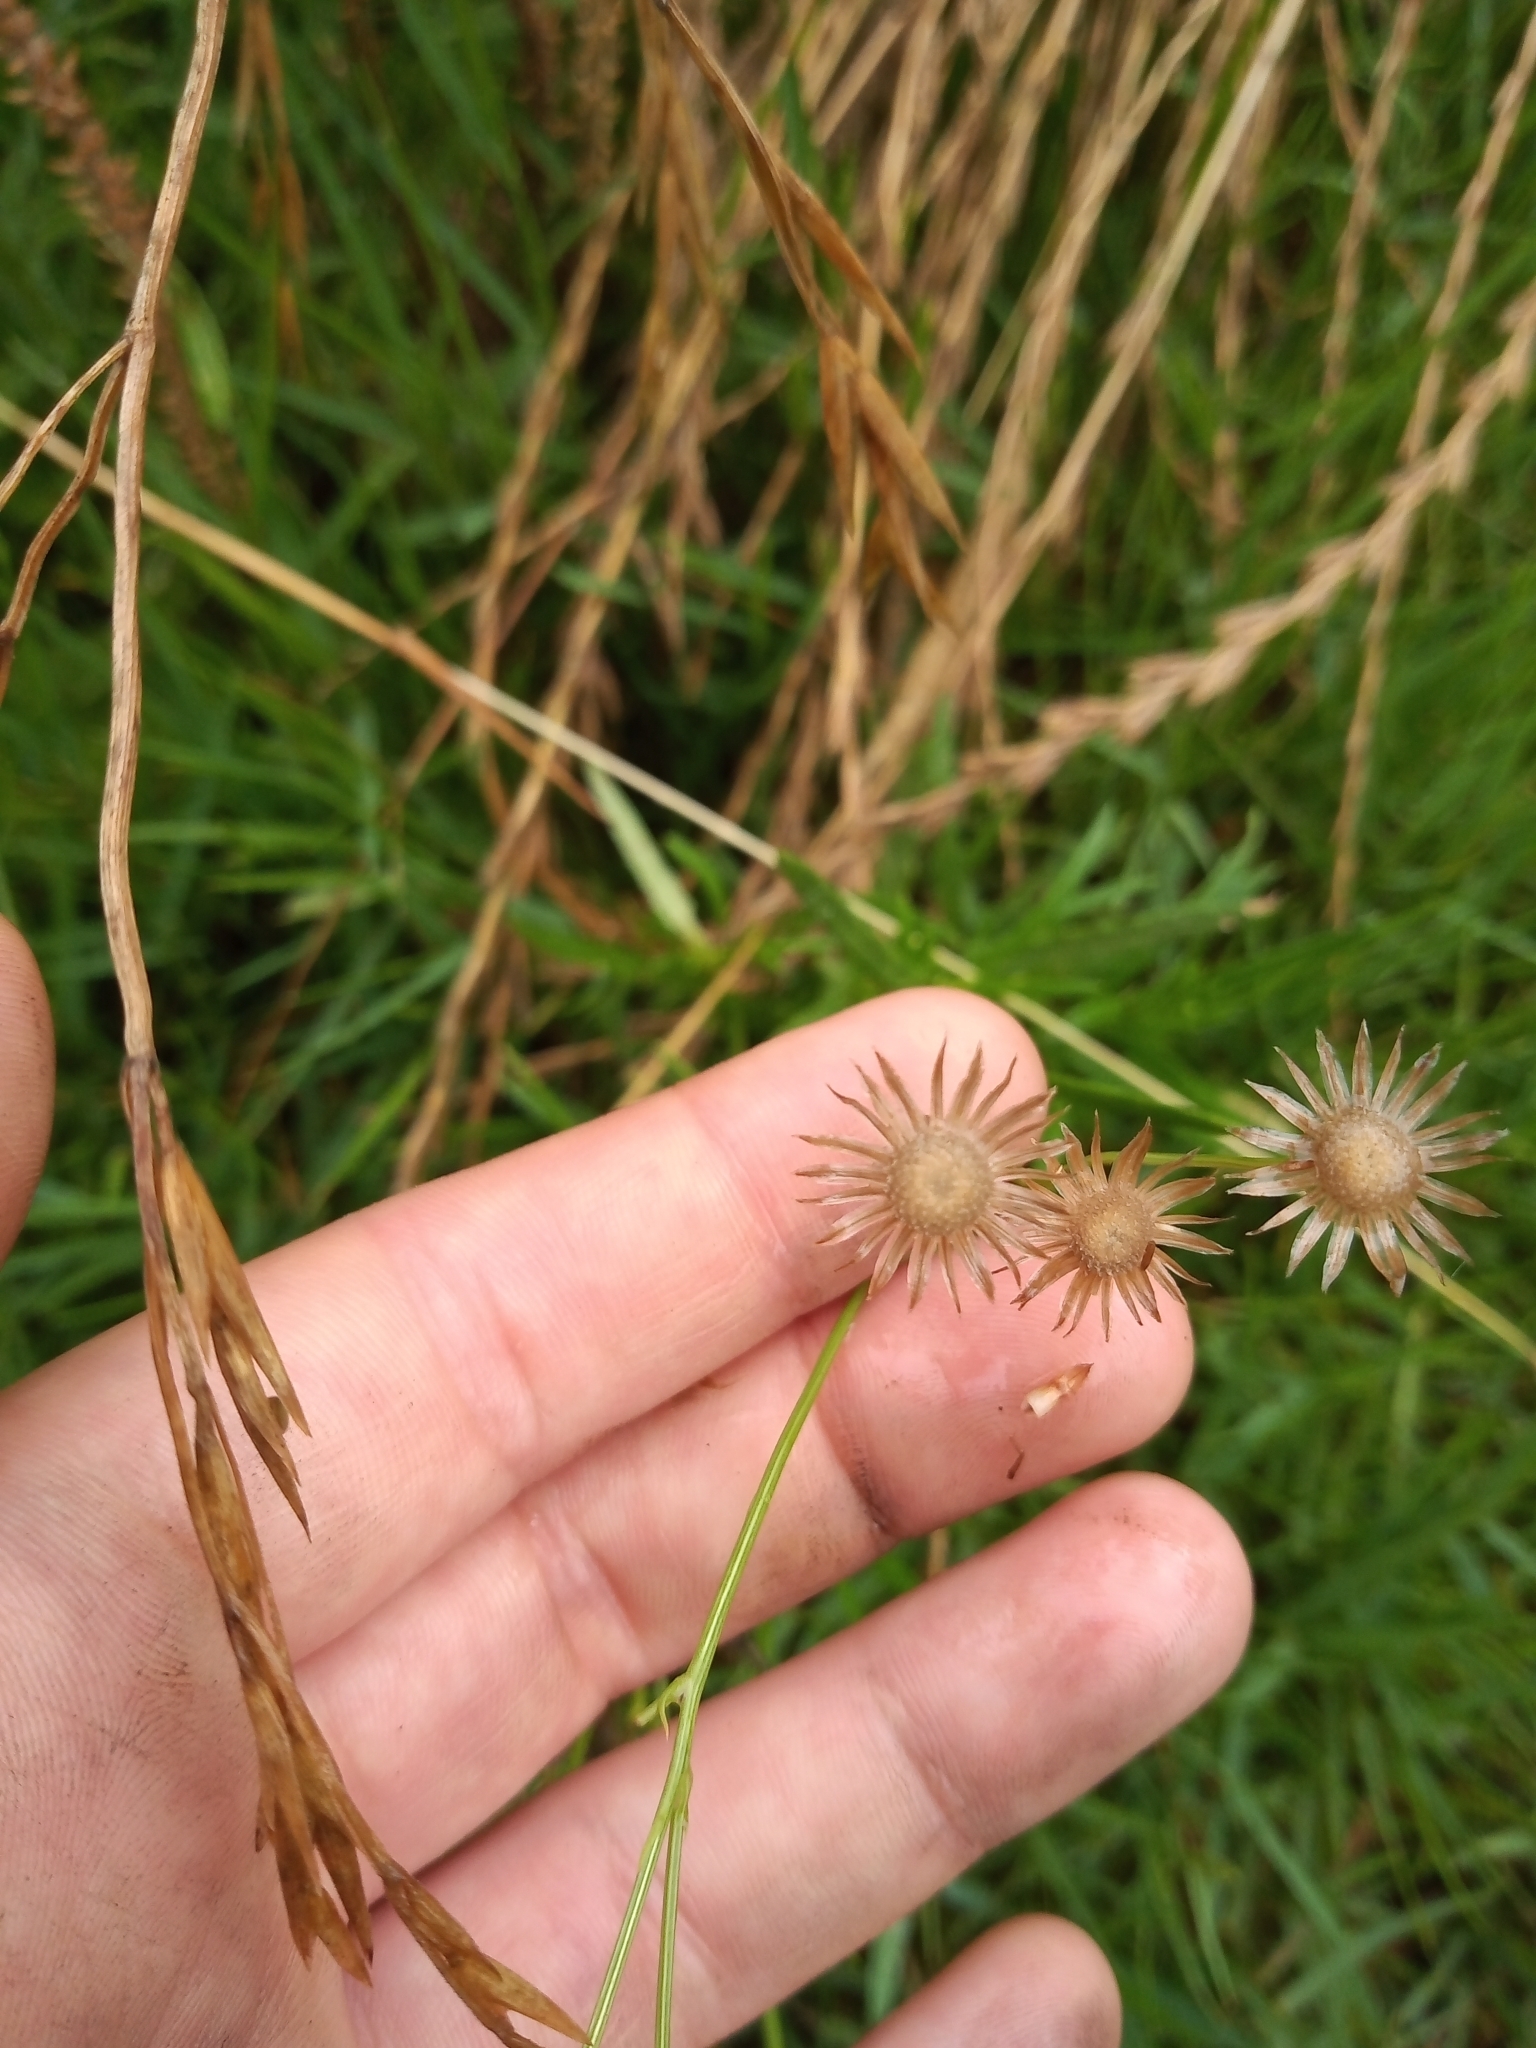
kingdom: Plantae
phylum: Tracheophyta
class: Magnoliopsida
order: Asterales
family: Asteraceae
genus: Senecio
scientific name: Senecio pterophorus
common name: Shoddy ragwort
